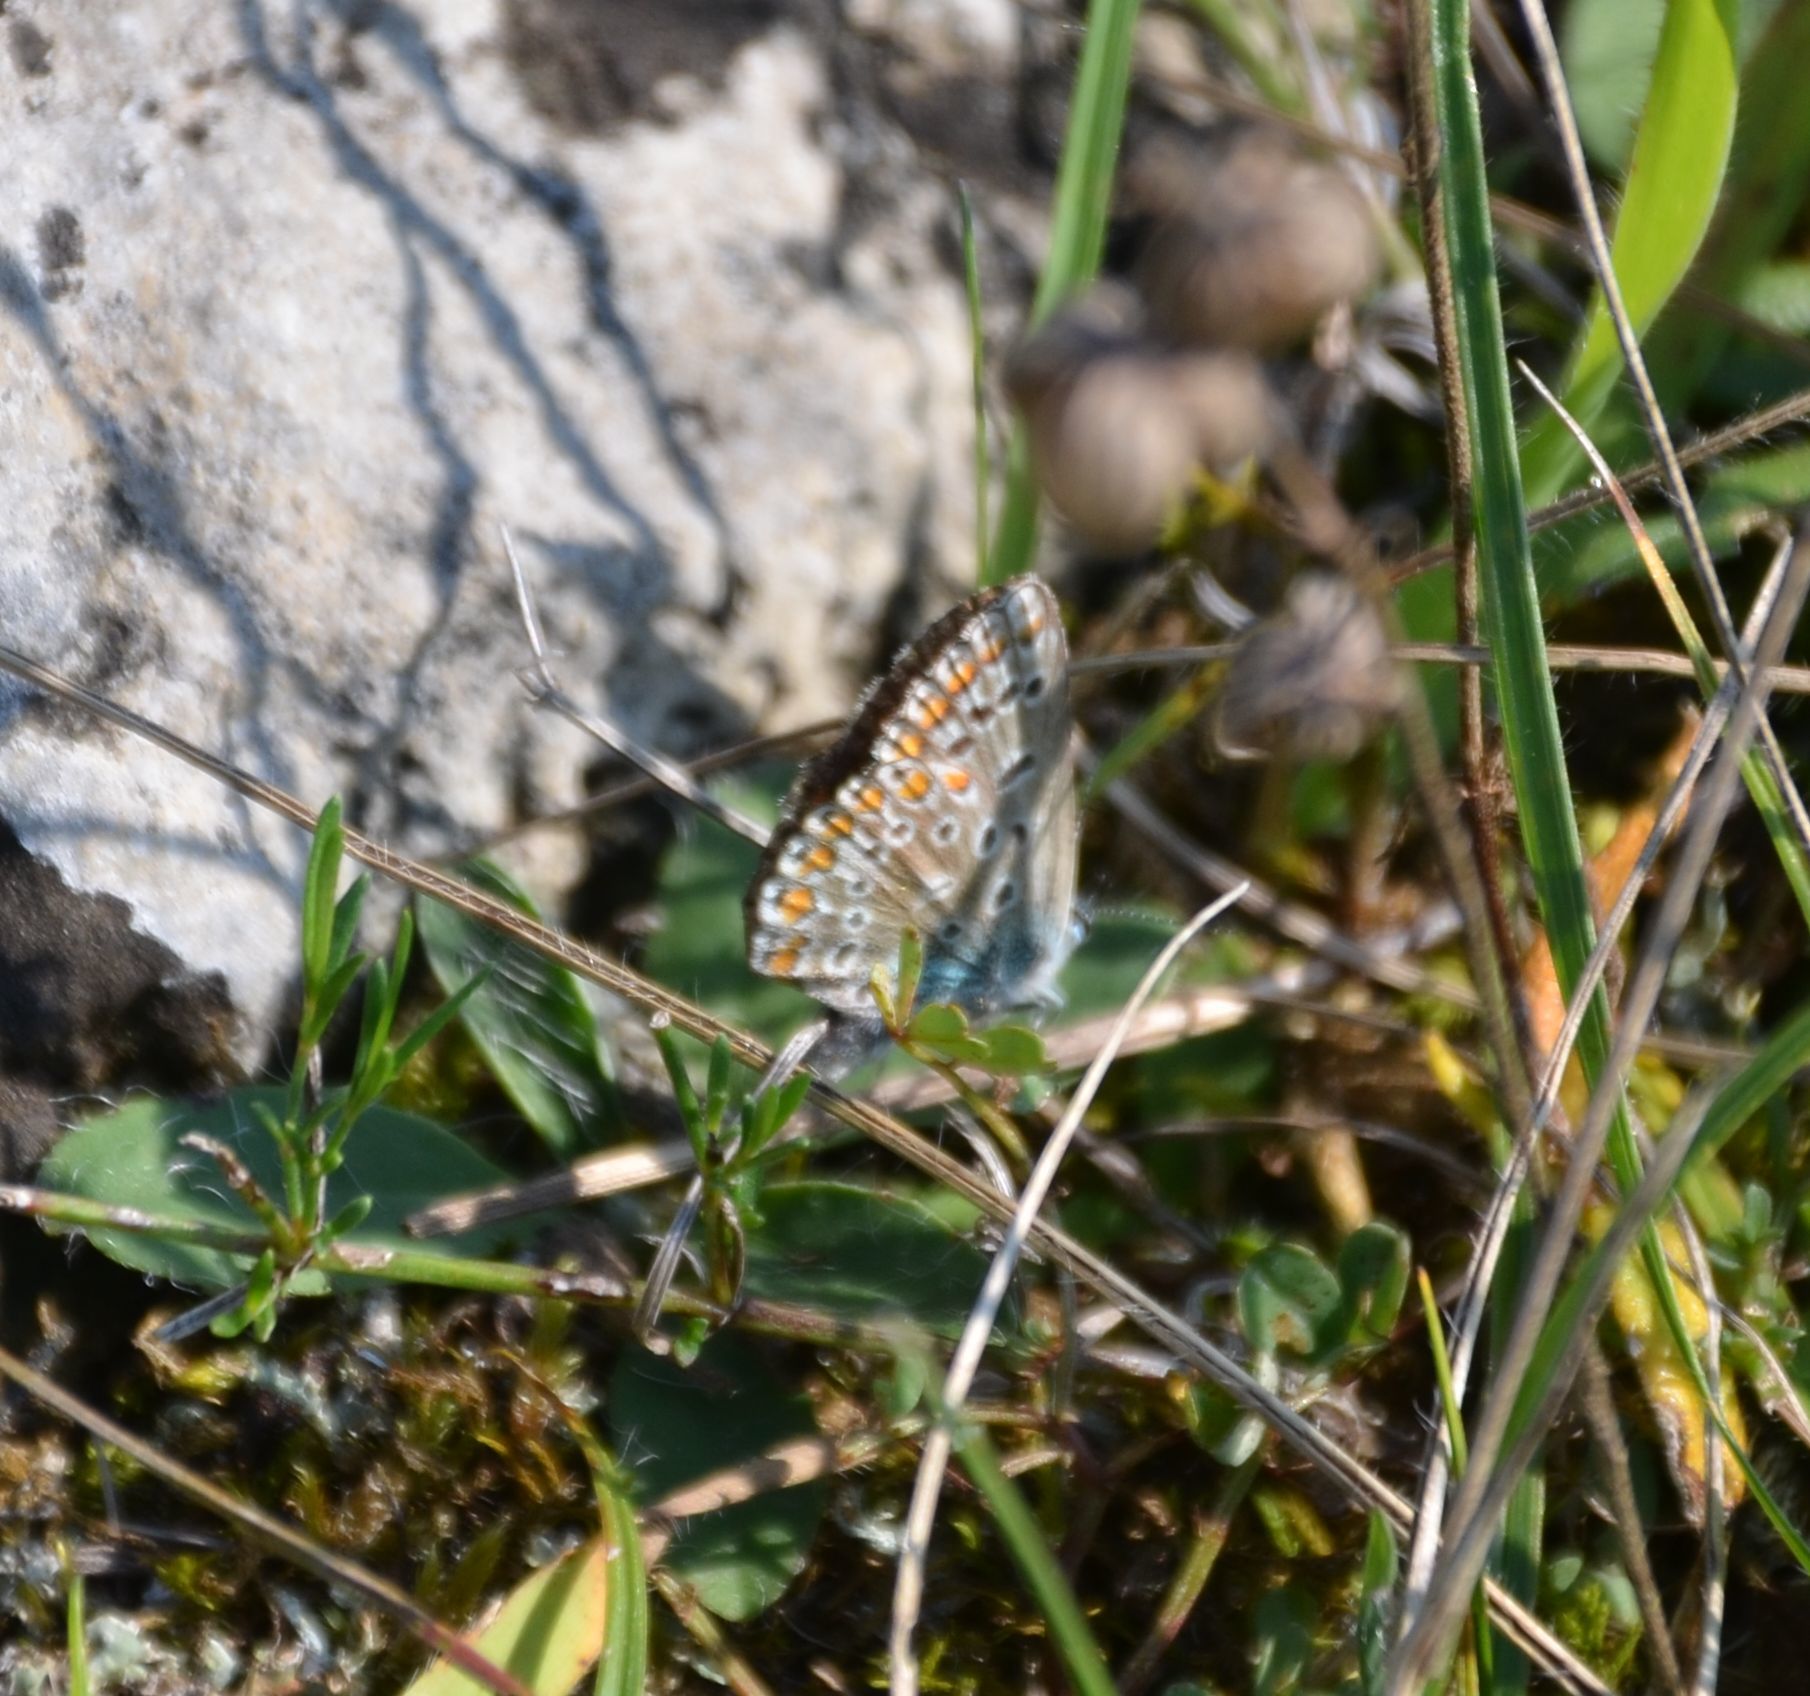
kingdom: Animalia
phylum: Arthropoda
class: Insecta
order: Lepidoptera
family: Lycaenidae
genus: Polyommatus
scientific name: Polyommatus icarus
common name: Common blue
